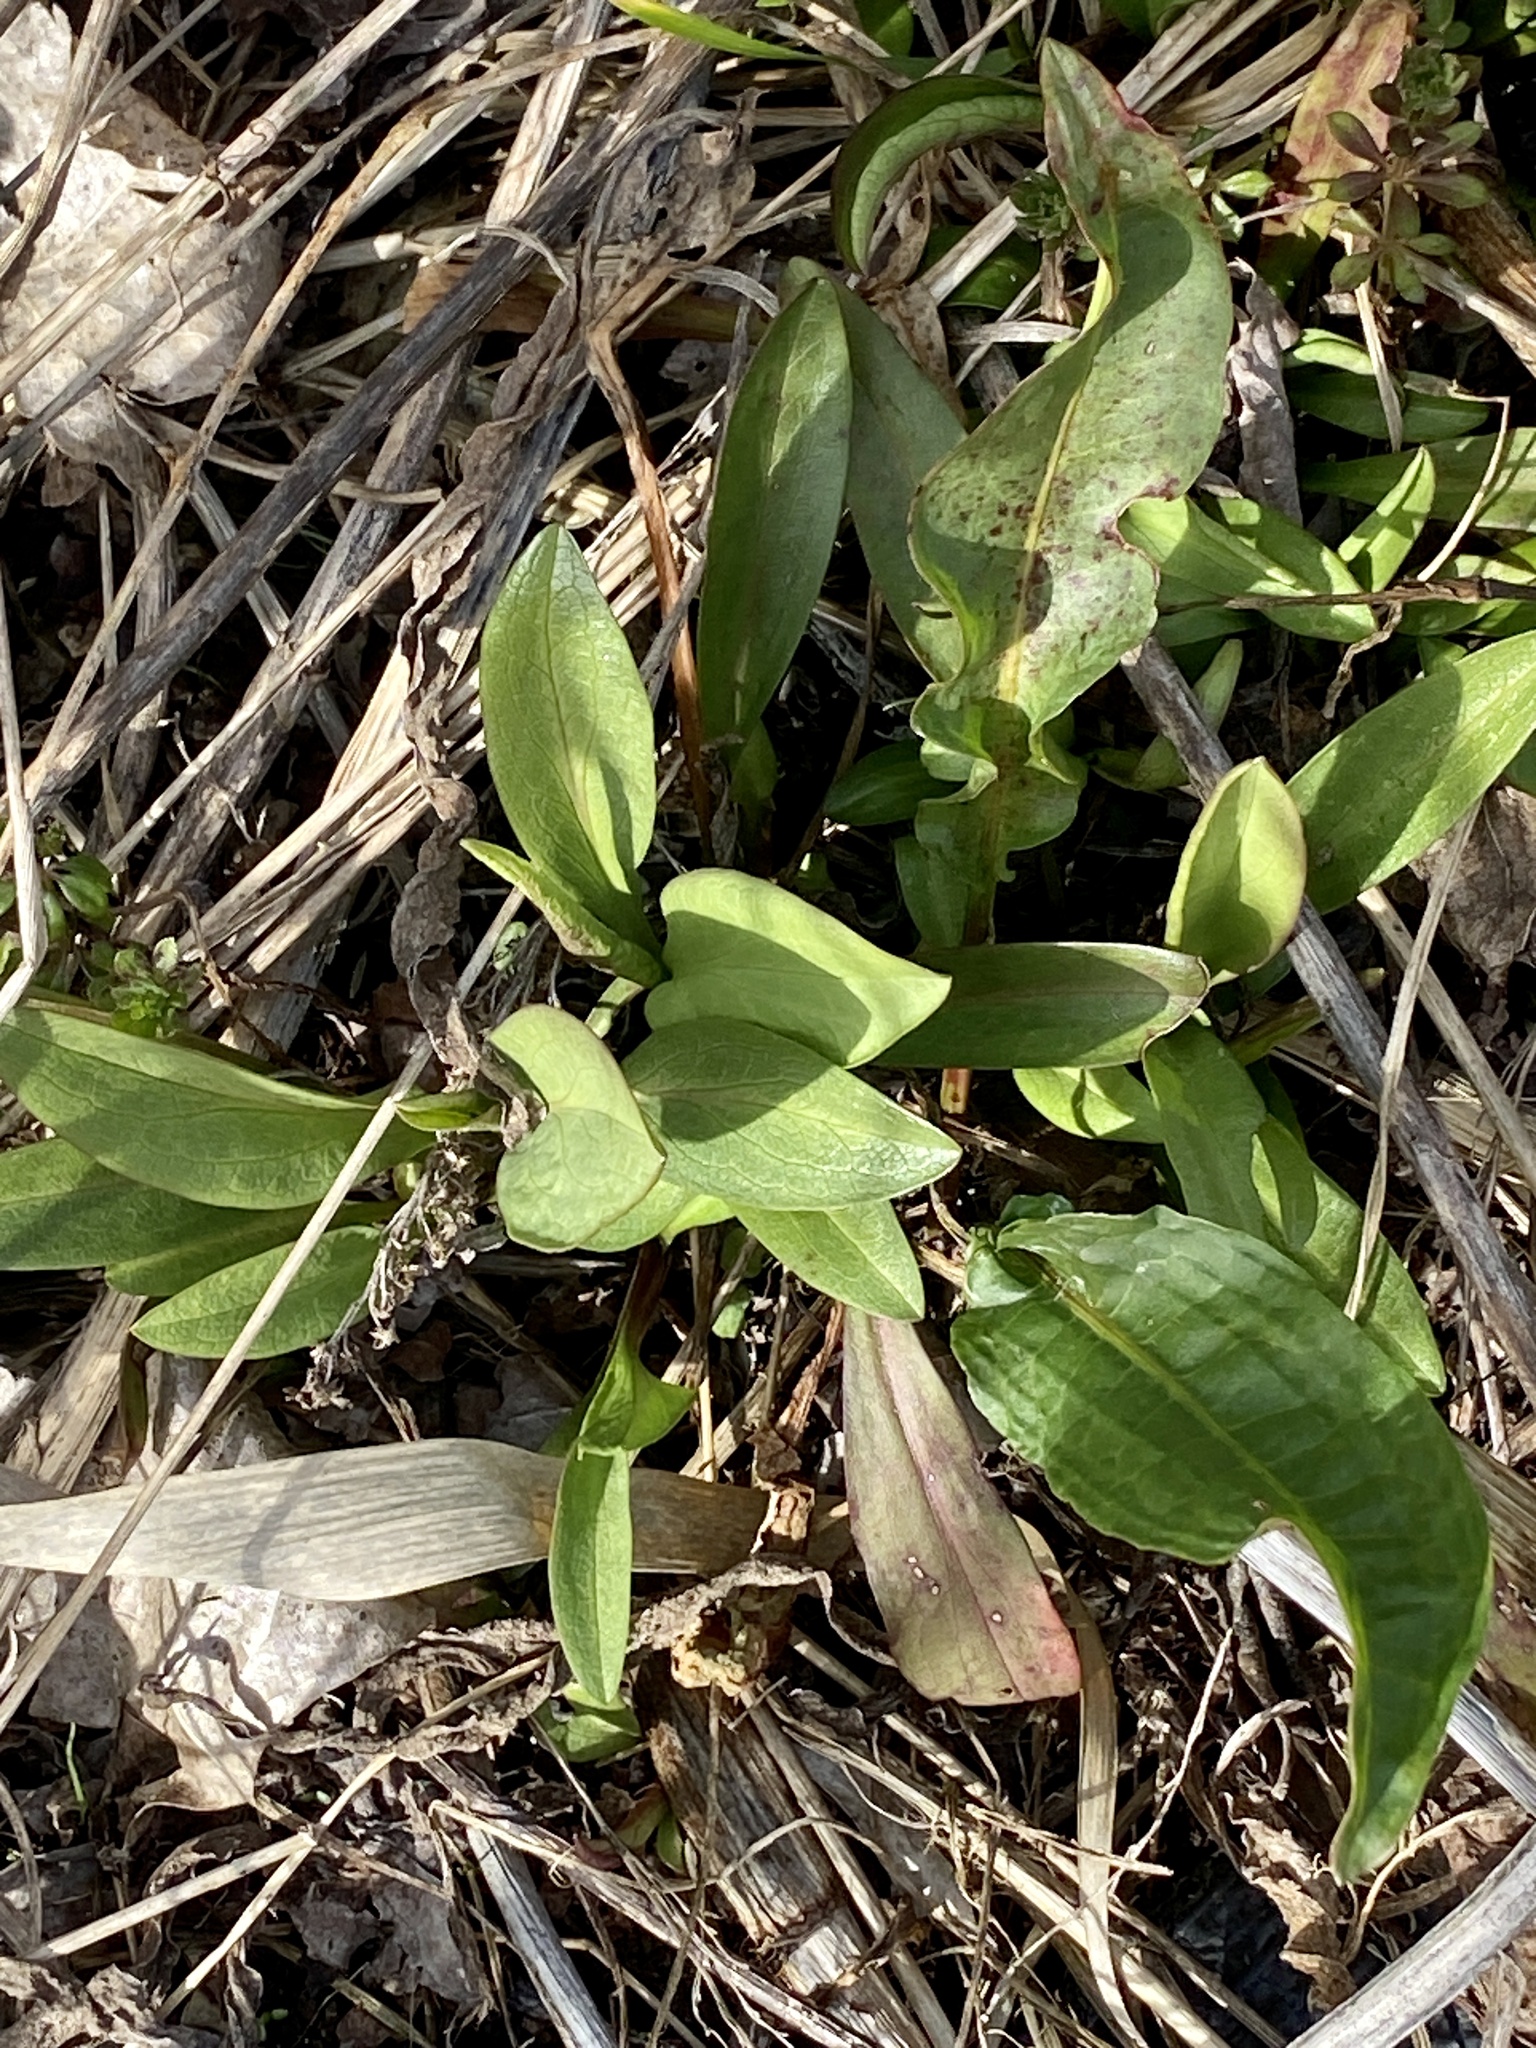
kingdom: Plantae
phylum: Tracheophyta
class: Magnoliopsida
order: Asterales
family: Asteraceae
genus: Solidago
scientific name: Solidago sempervirens
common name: Salt-marsh goldenrod
